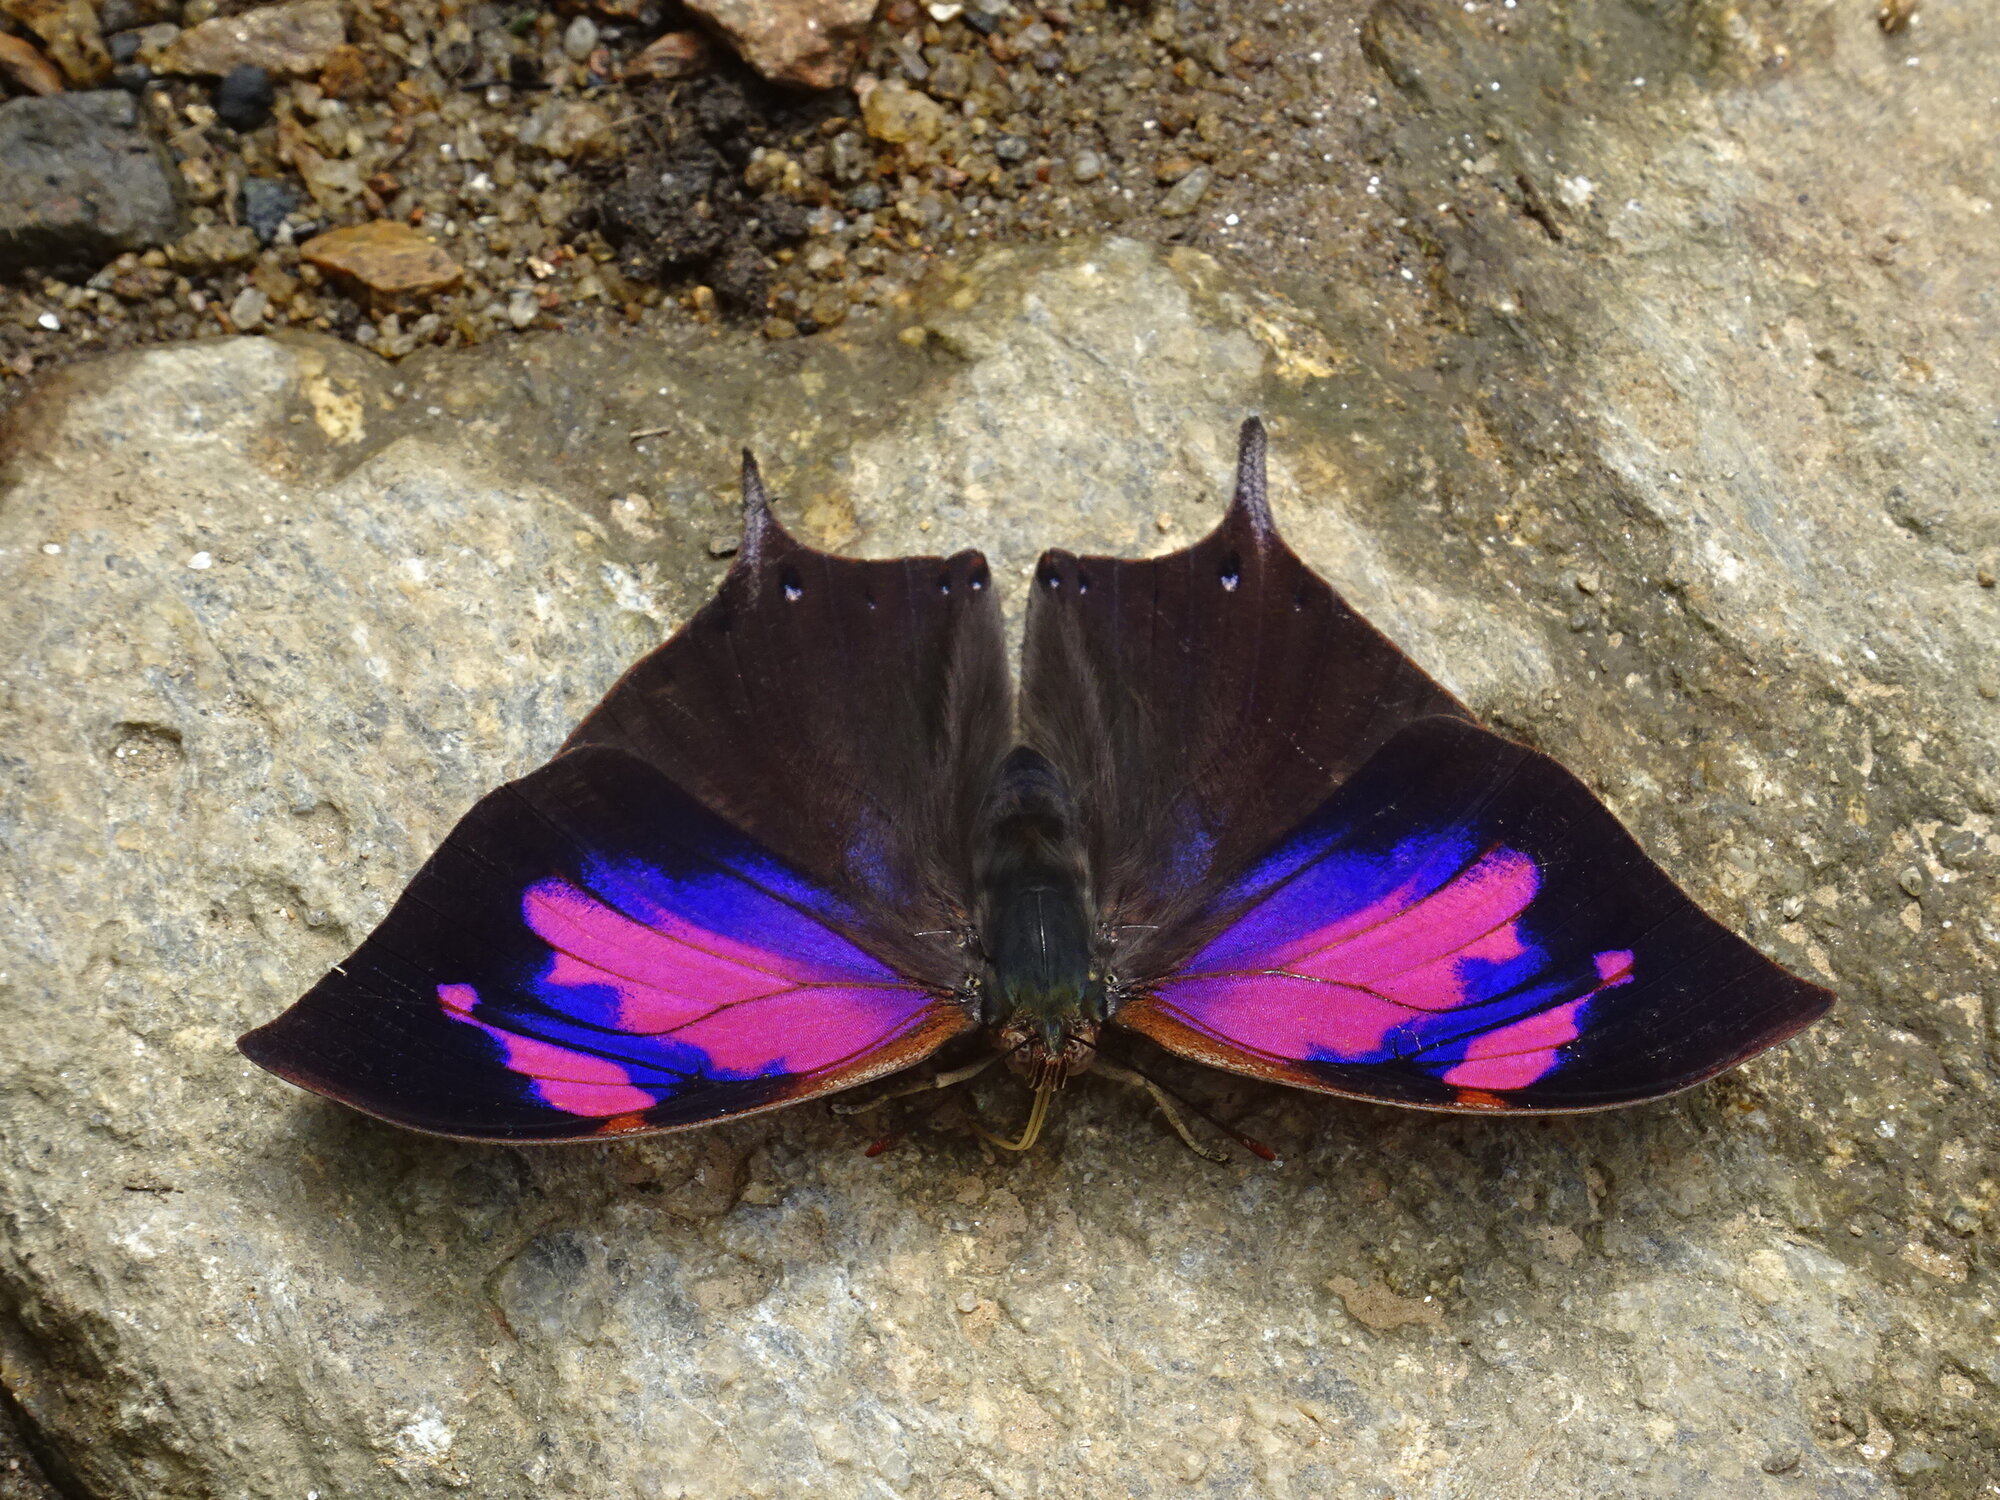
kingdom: Animalia
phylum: Arthropoda
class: Insecta
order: Lepidoptera
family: Nymphalidae
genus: Fountainea
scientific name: Fountainea
